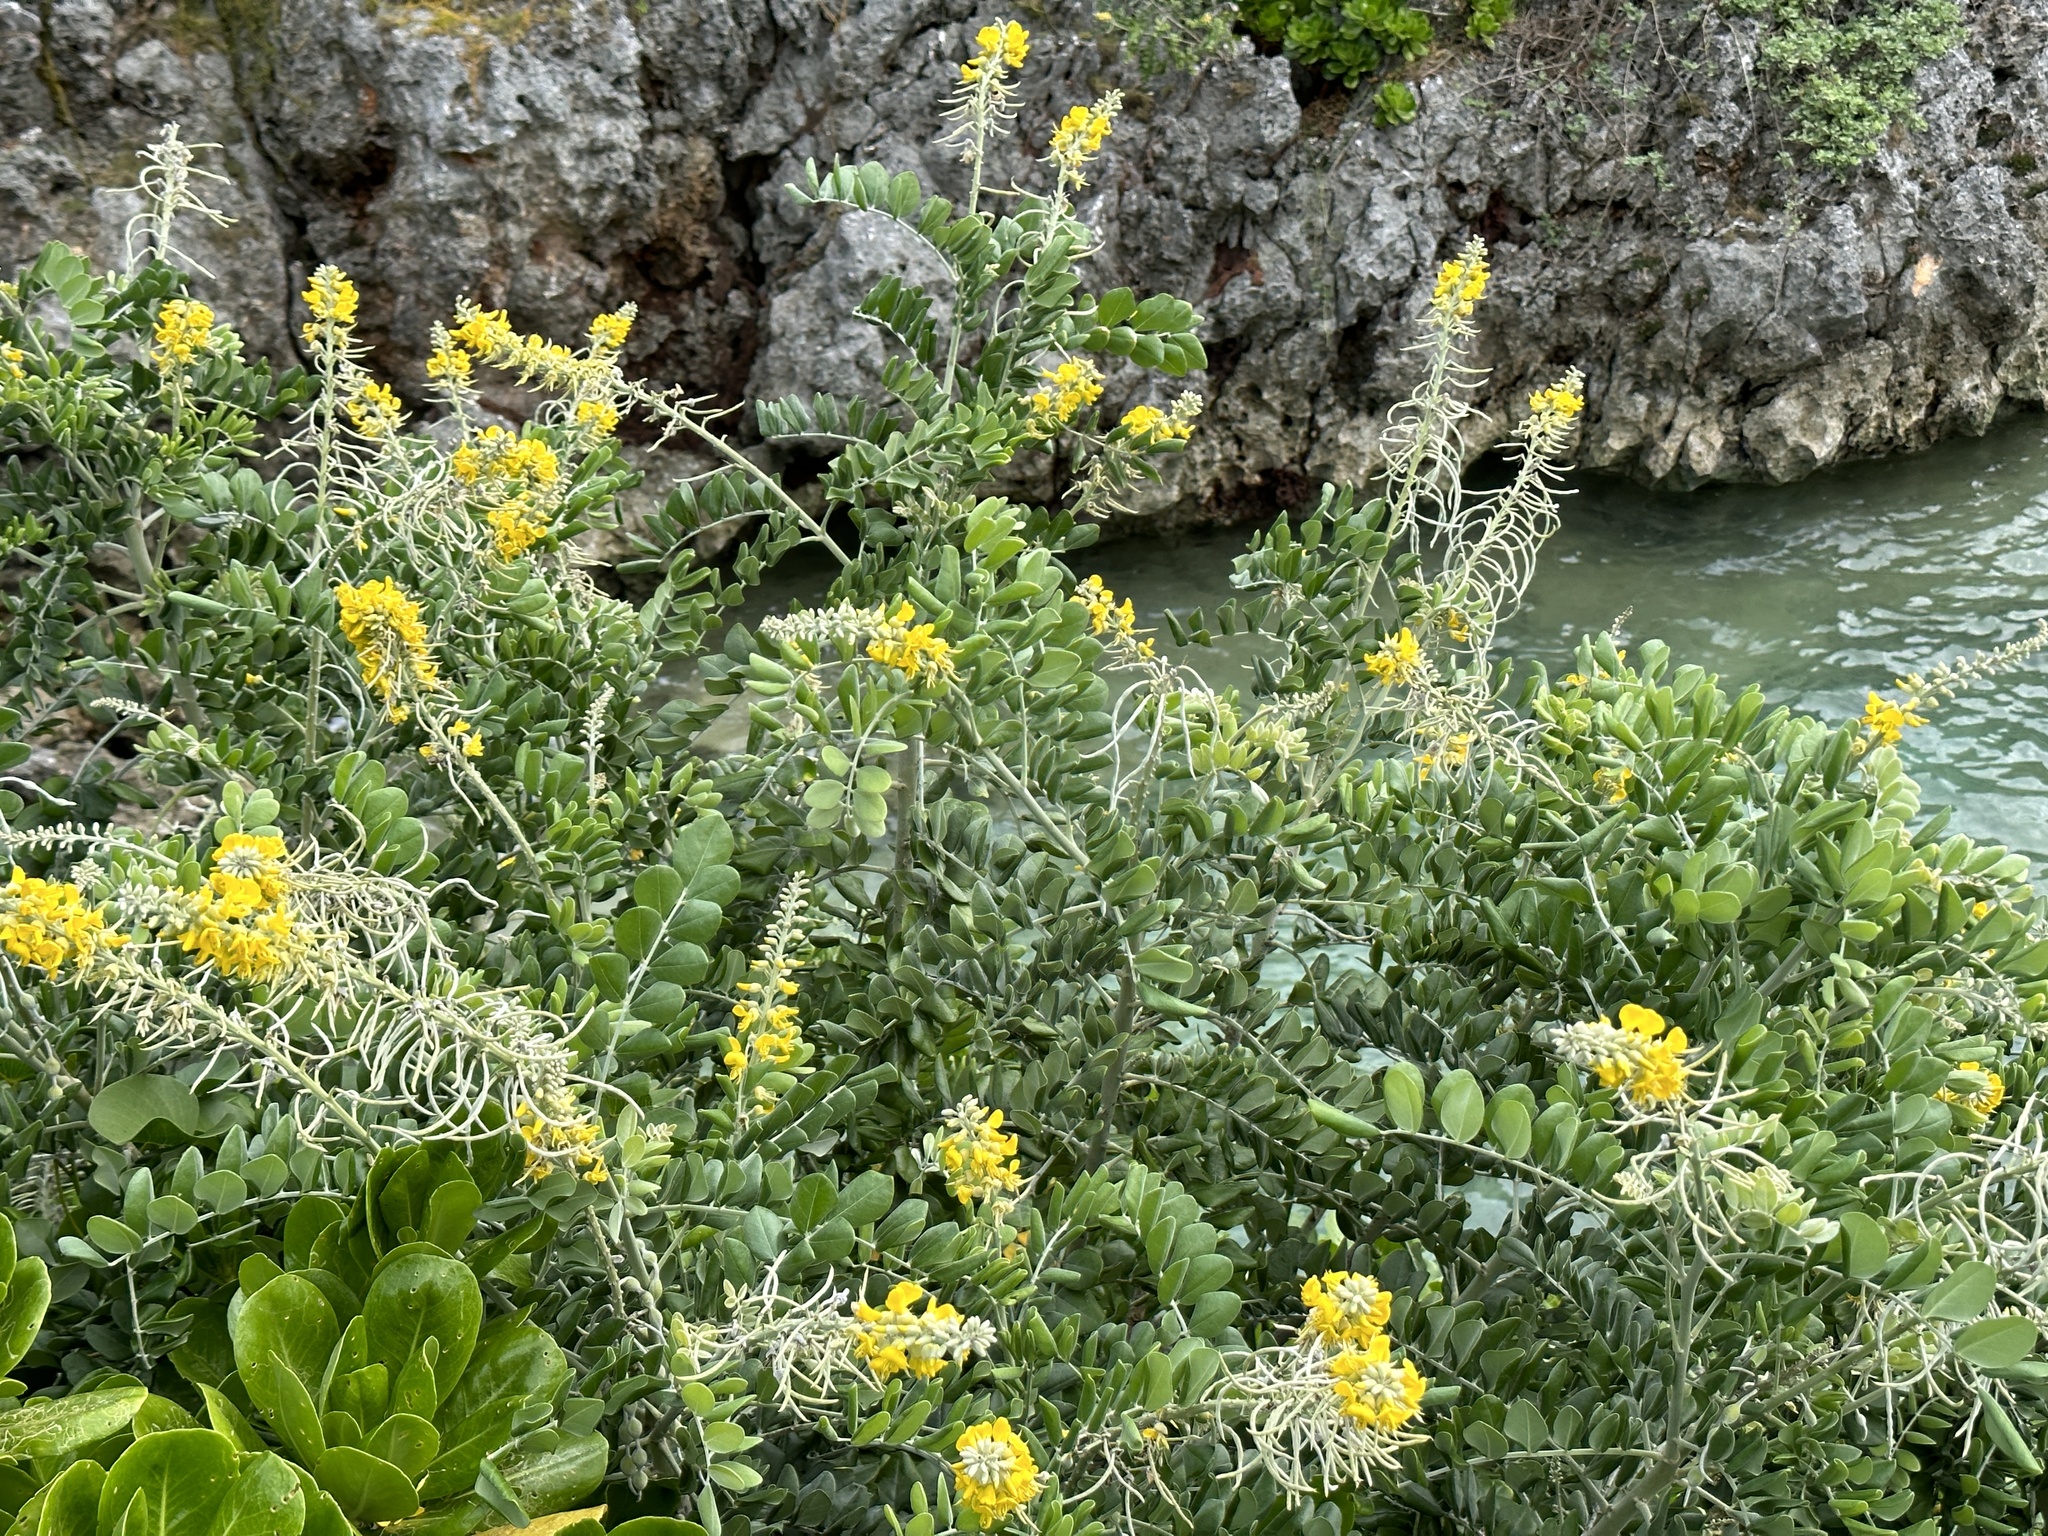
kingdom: Plantae
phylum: Tracheophyta
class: Magnoliopsida
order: Fabales
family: Fabaceae
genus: Sophora
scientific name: Sophora tomentosa
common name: Yellow necklacepod
